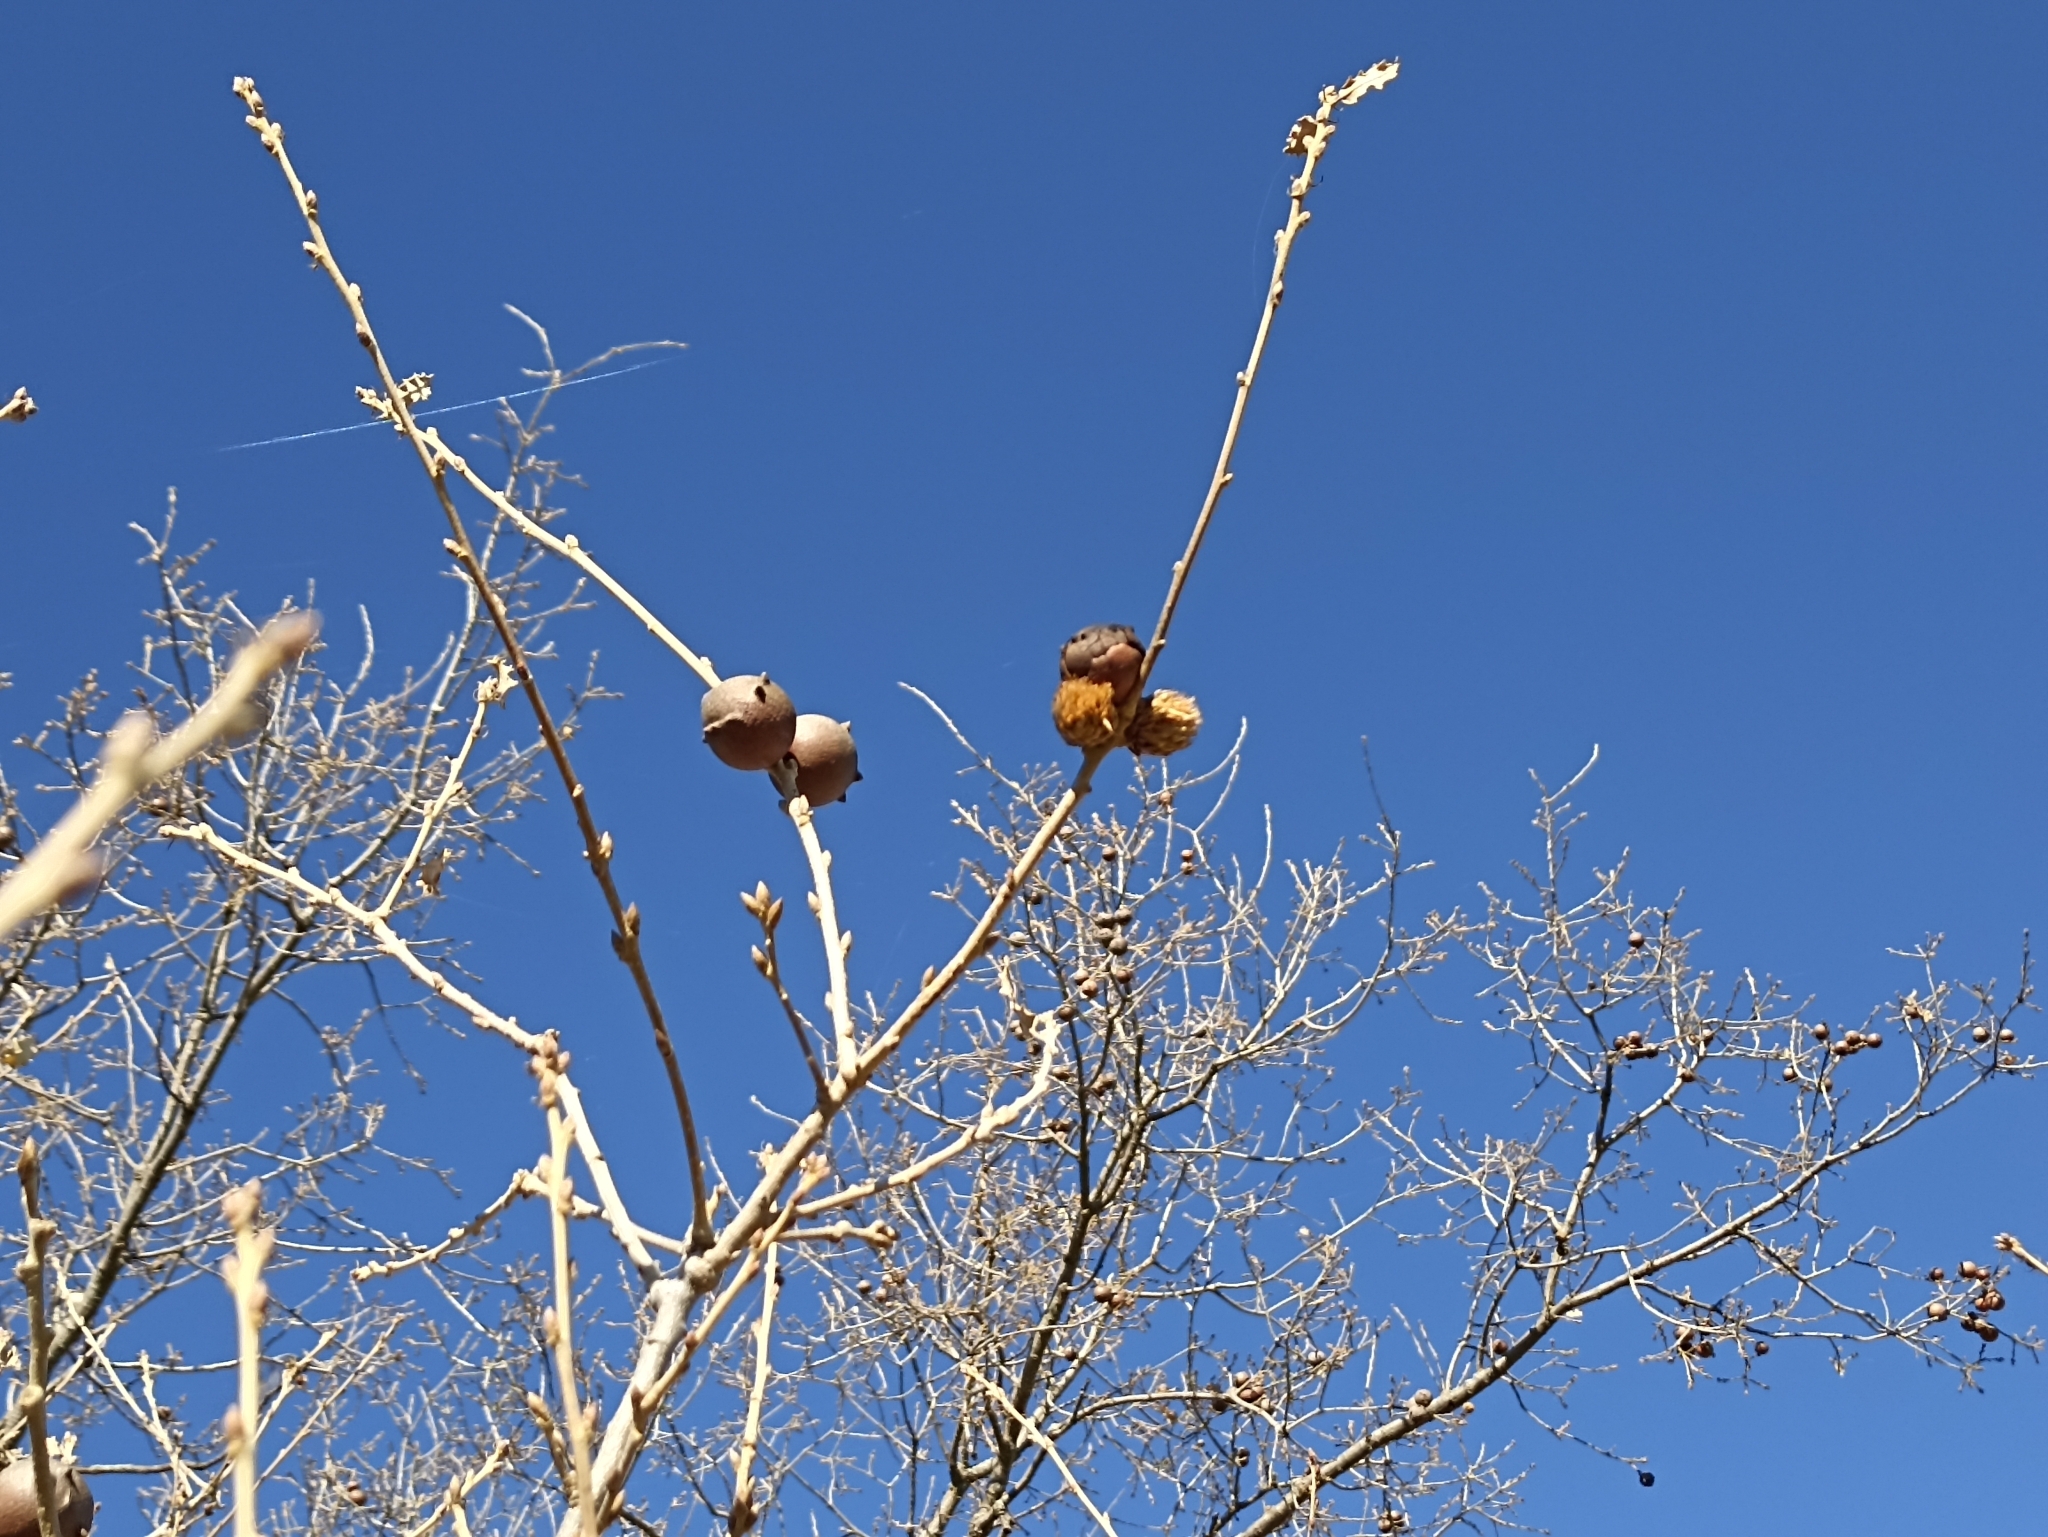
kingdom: Animalia
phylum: Arthropoda
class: Insecta
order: Hymenoptera
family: Cynipidae
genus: Andricus
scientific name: Andricus foecundatrix
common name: Artichoke gall
